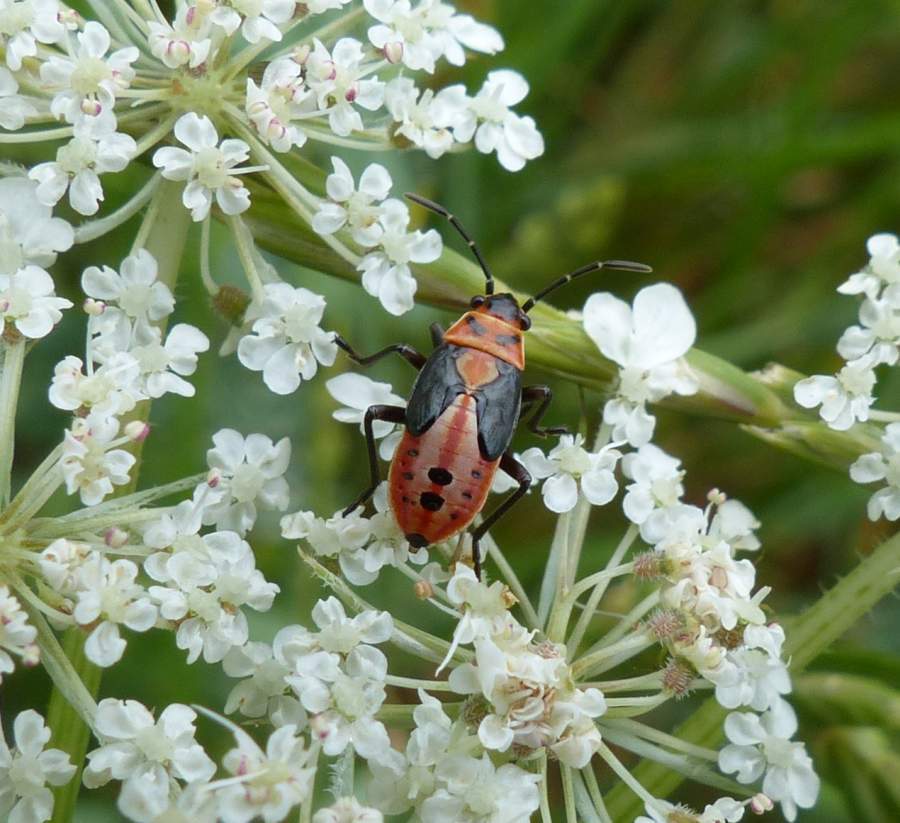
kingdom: Animalia
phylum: Arthropoda
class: Insecta
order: Hemiptera
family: Lygaeidae
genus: Lygaeus
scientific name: Lygaeus kalmii
